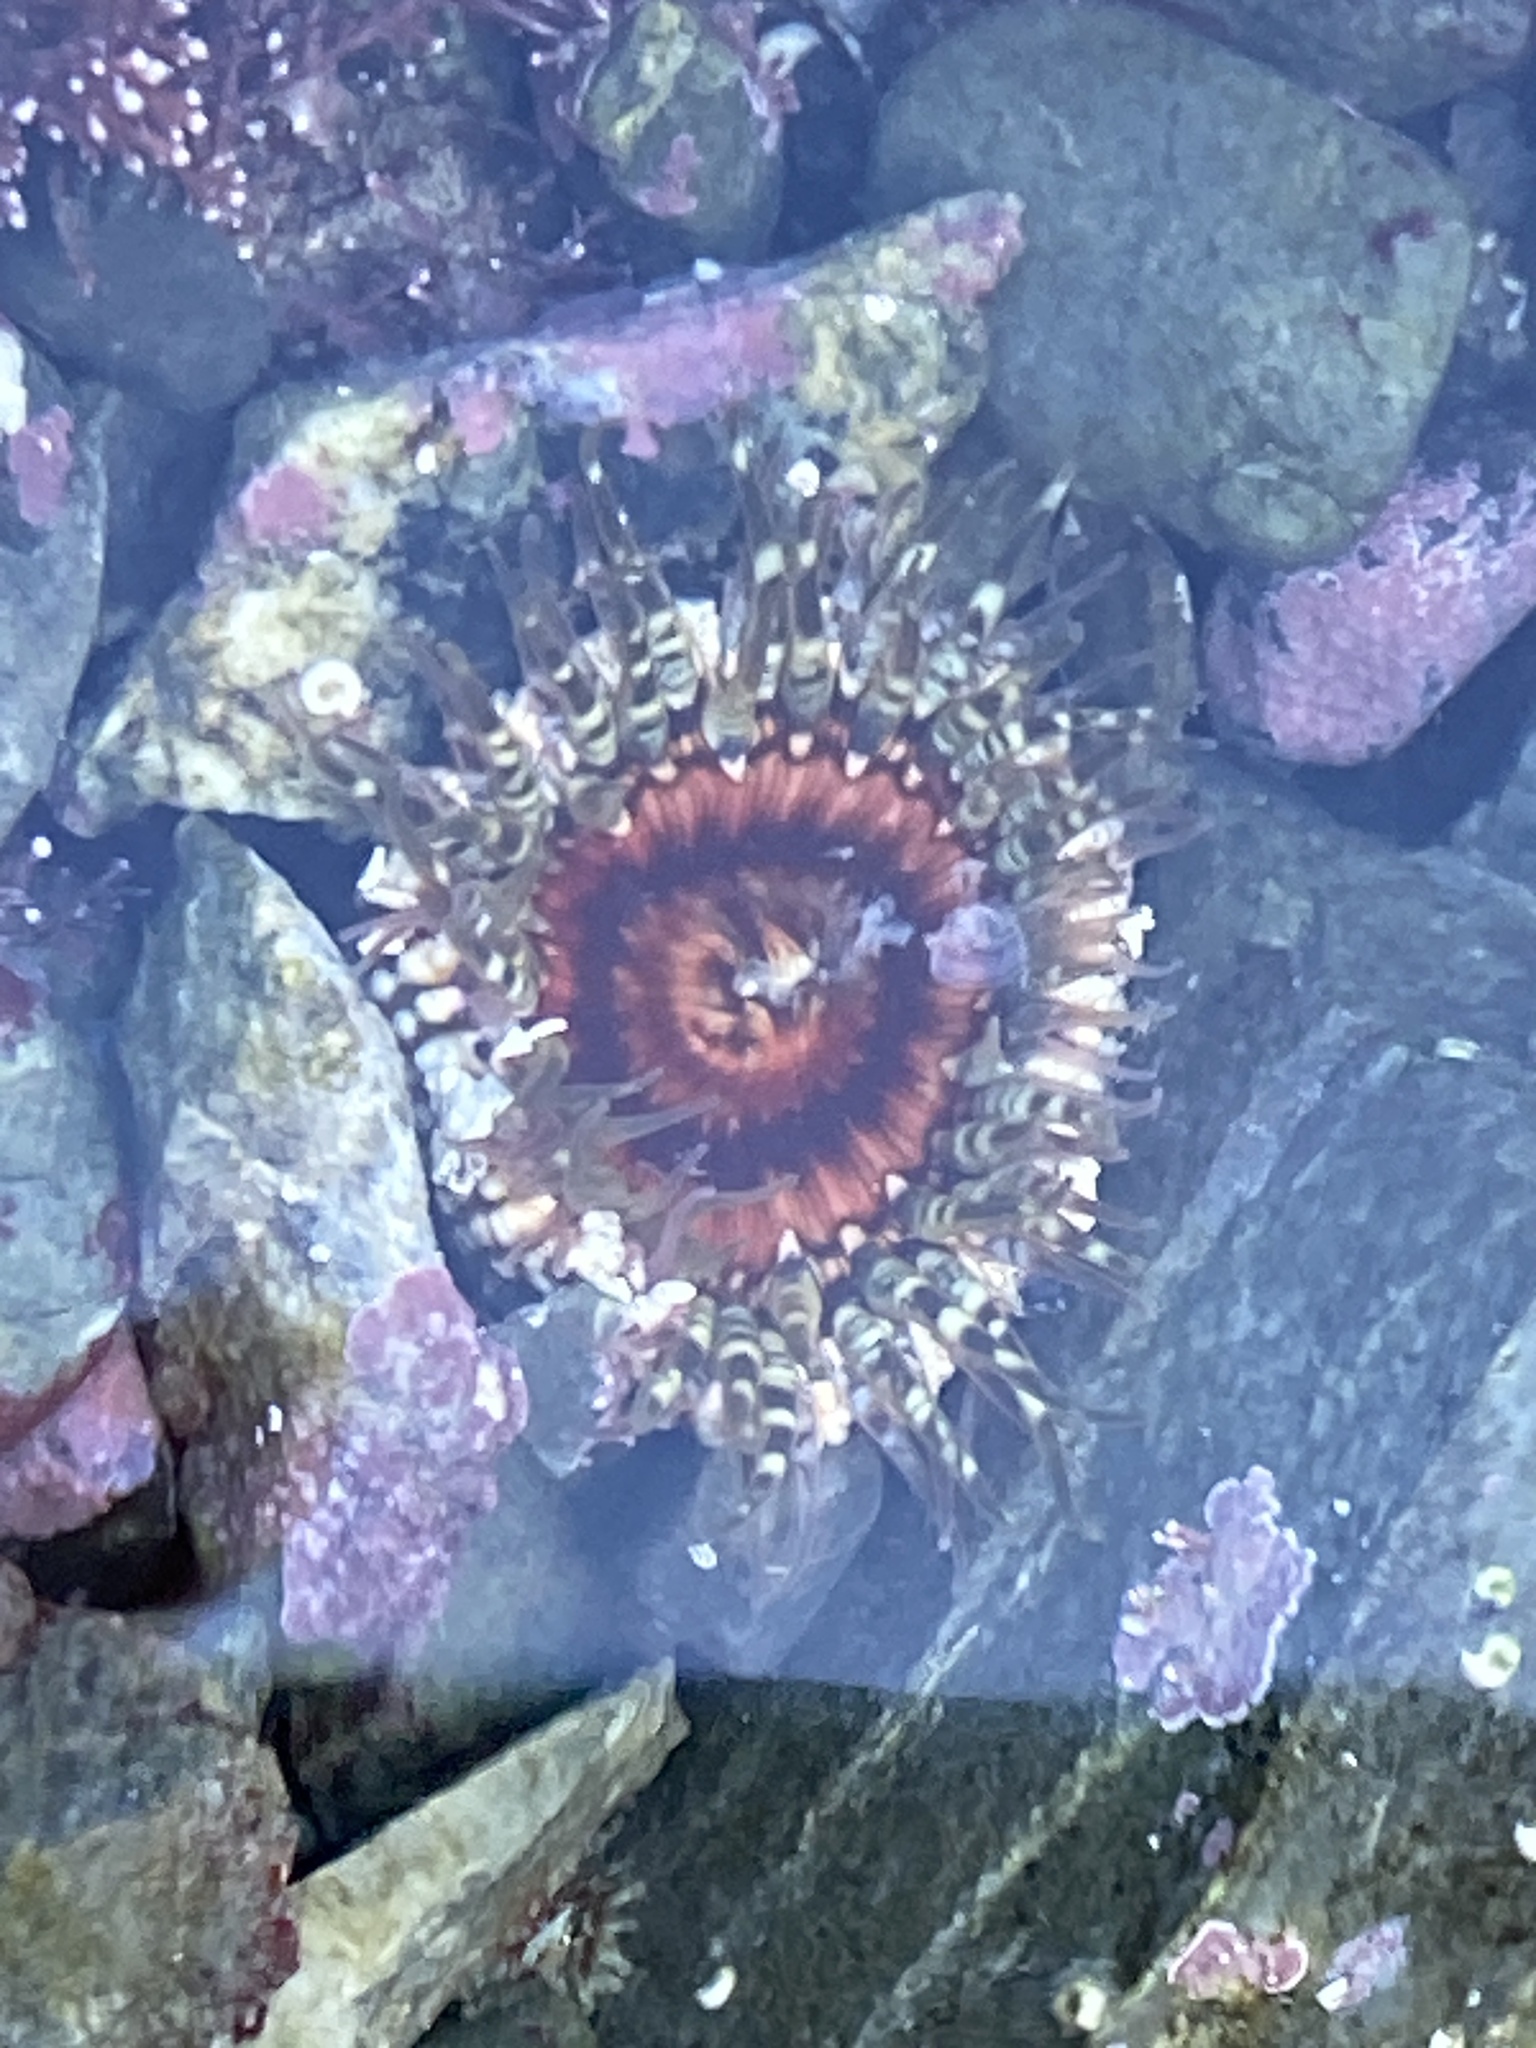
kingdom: Animalia
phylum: Cnidaria
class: Anthozoa
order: Actiniaria
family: Actiniidae
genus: Oulactis
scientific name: Oulactis muscosa
